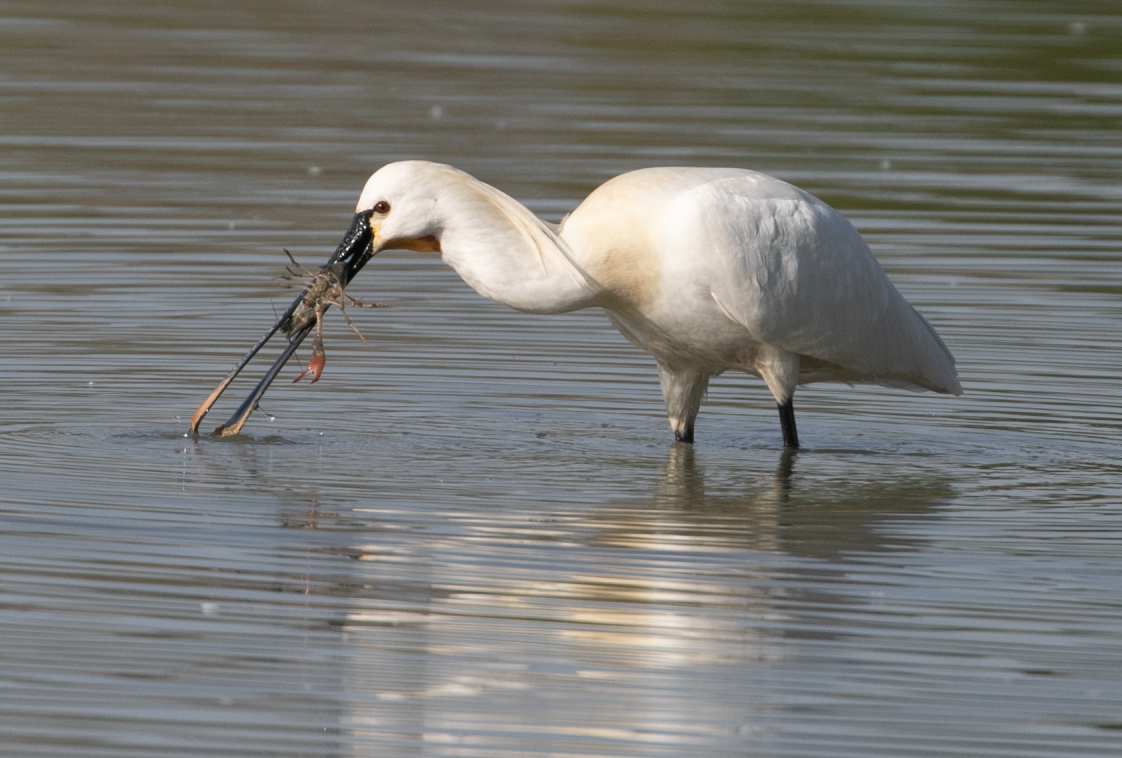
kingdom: Animalia
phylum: Chordata
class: Aves
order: Pelecaniformes
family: Threskiornithidae
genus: Platalea
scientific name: Platalea leucorodia
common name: Eurasian spoonbill
